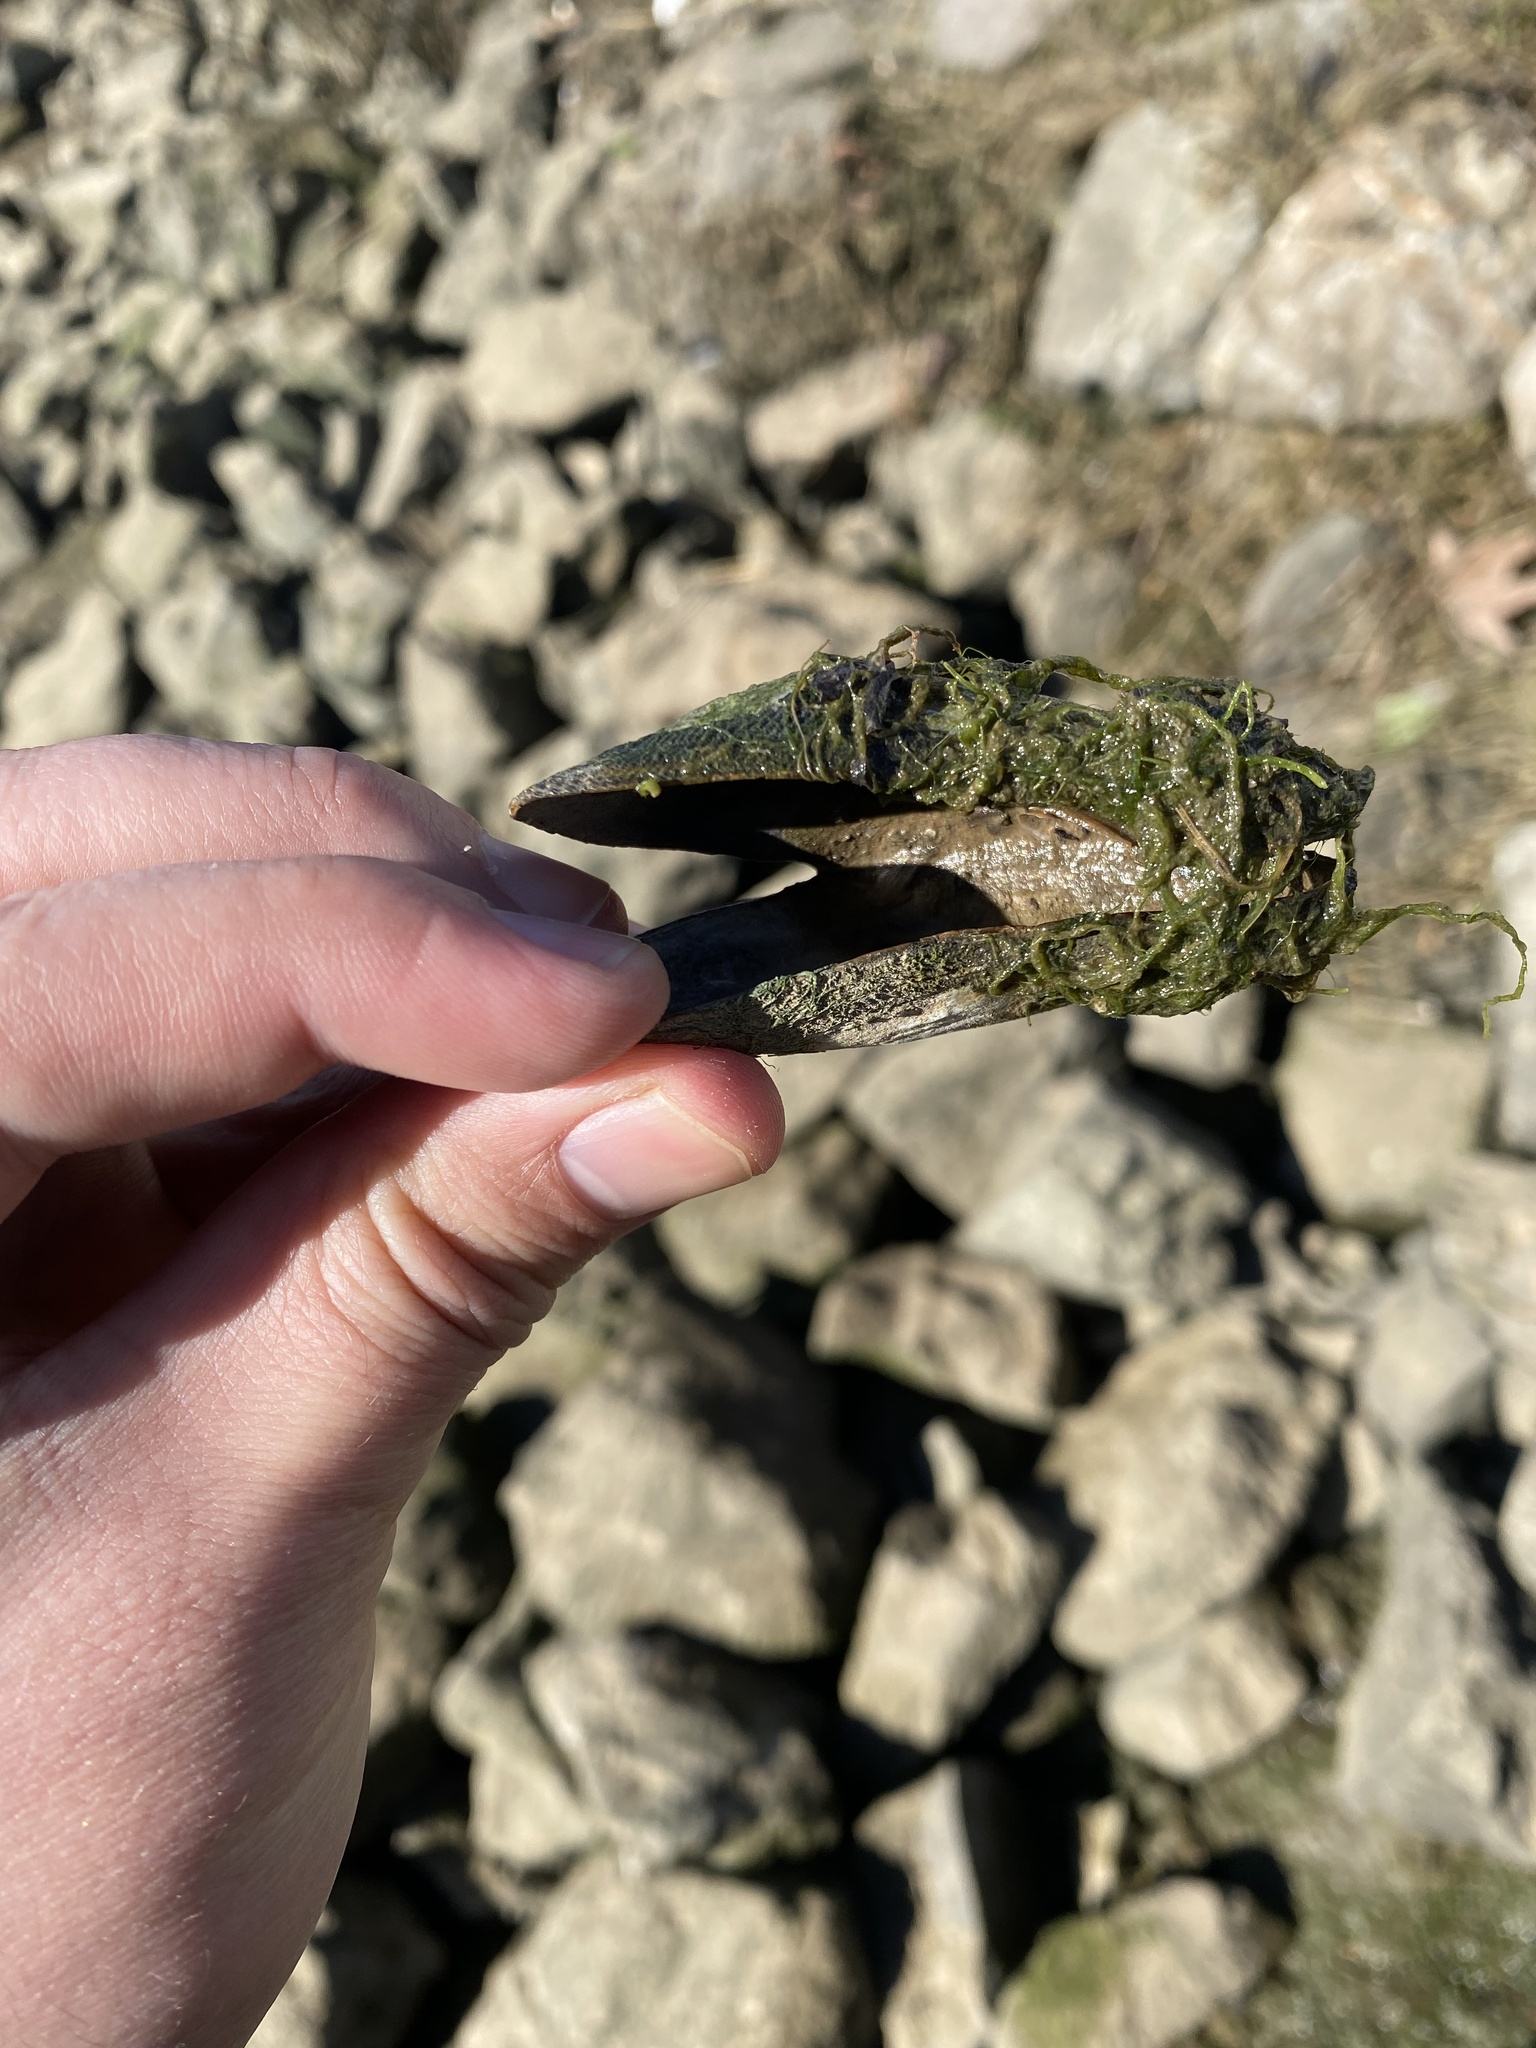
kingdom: Animalia
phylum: Mollusca
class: Bivalvia
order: Mytilida
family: Mytilidae
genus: Geukensia
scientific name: Geukensia demissa
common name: Ribbed mussel
